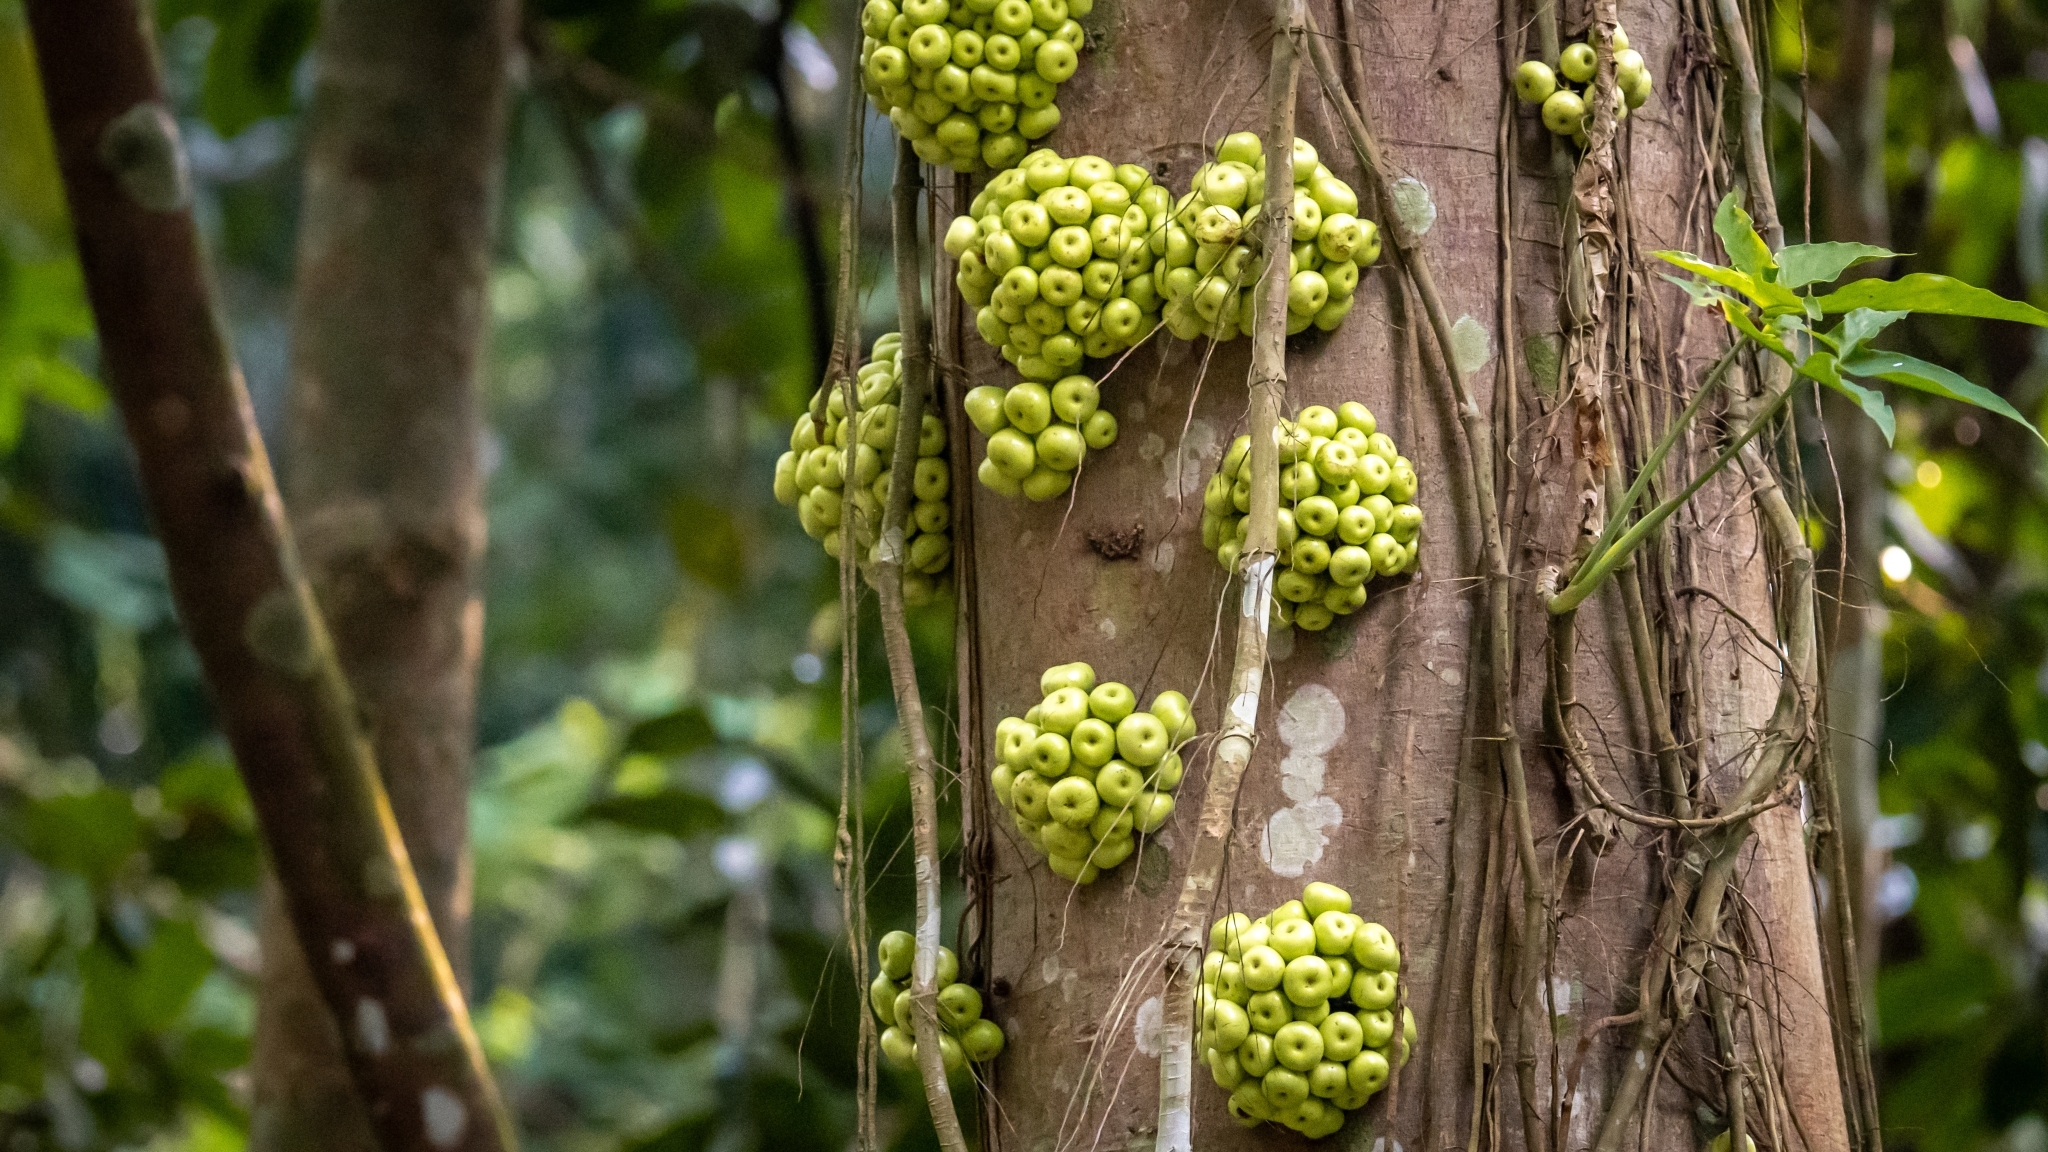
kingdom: Plantae
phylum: Tracheophyta
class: Magnoliopsida
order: Rosales
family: Moraceae
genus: Ficus
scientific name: Ficus variegata
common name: Variegated fig
